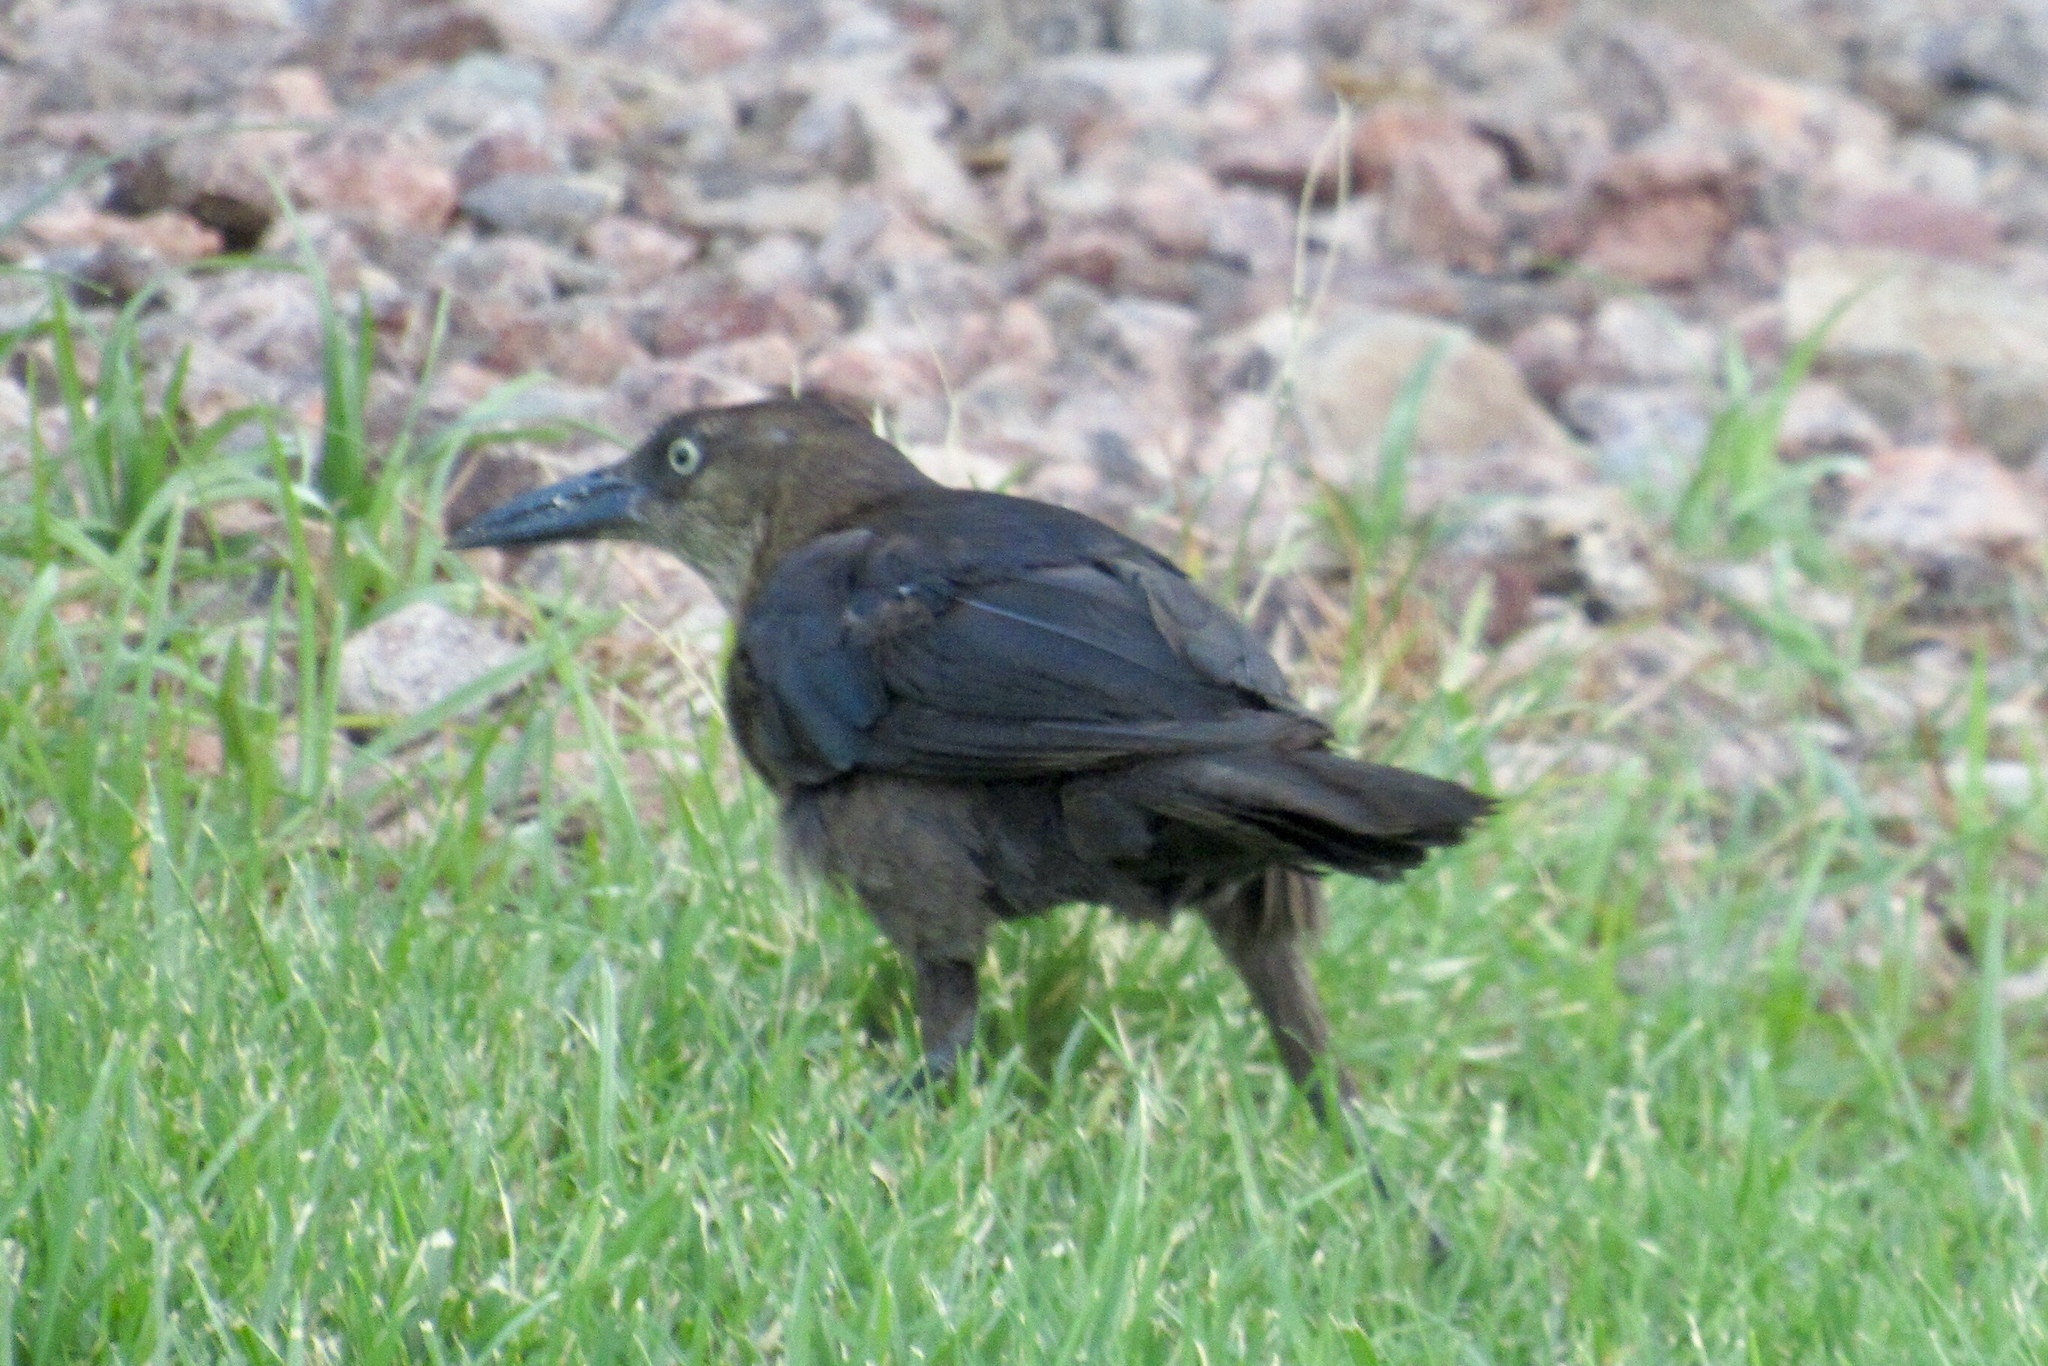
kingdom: Animalia
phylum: Chordata
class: Aves
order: Passeriformes
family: Icteridae
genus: Quiscalus
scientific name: Quiscalus mexicanus
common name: Great-tailed grackle
